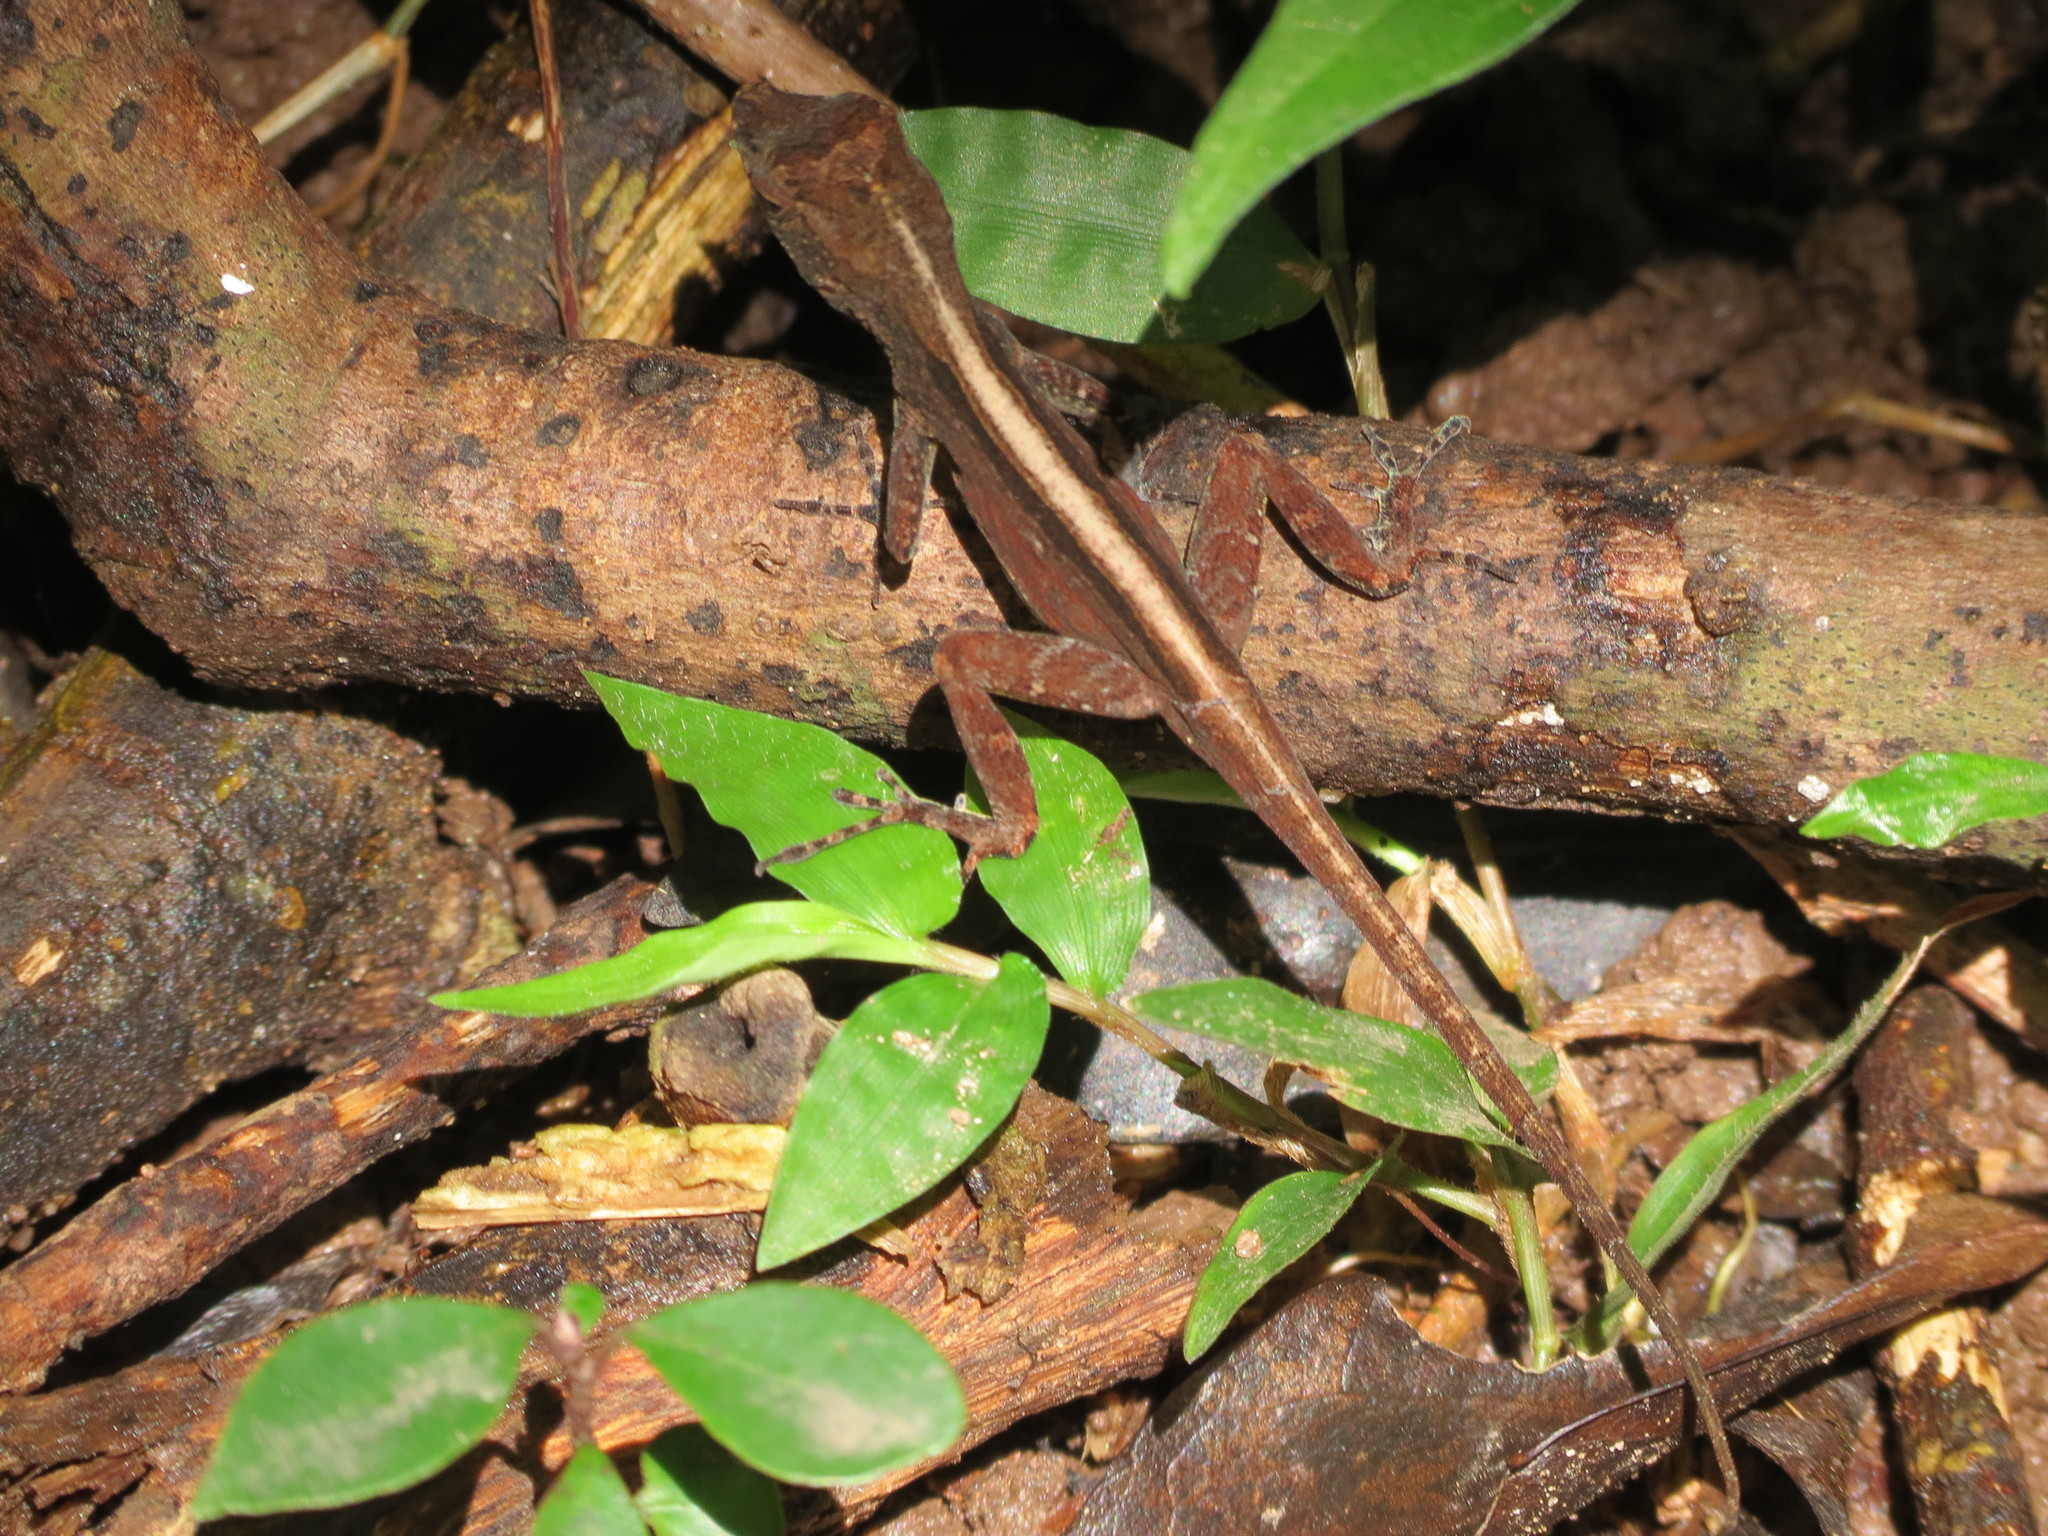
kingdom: Animalia
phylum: Chordata
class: Squamata
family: Dactyloidae
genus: Anolis
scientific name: Anolis cristatellus
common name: Crested anole
